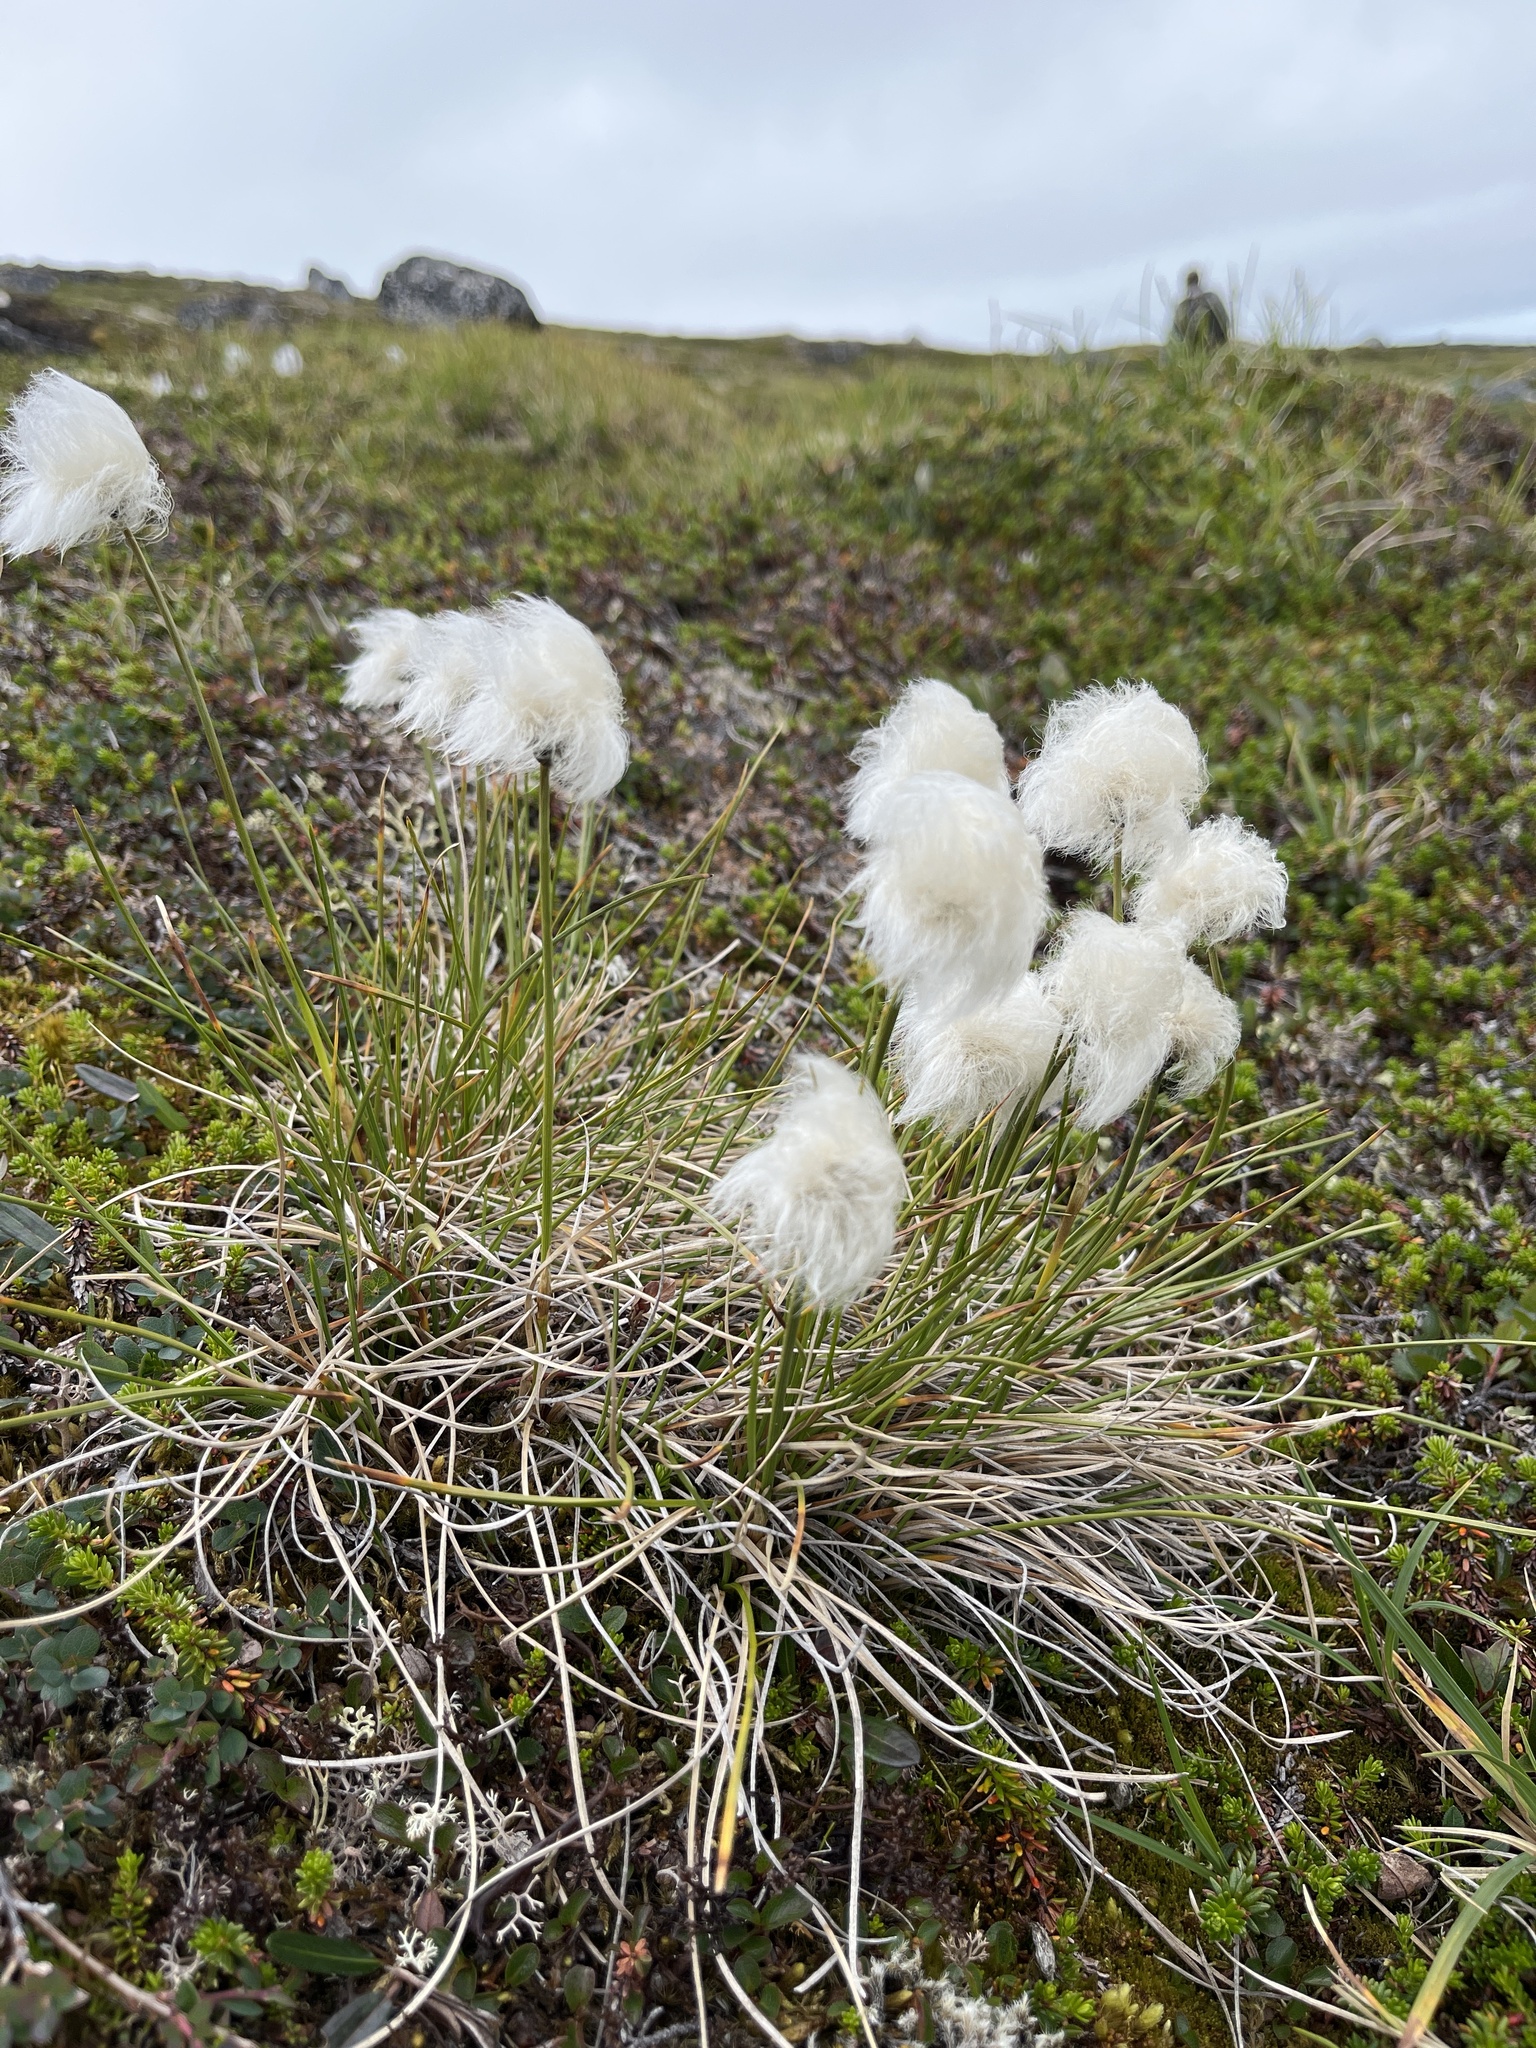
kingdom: Plantae
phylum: Tracheophyta
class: Liliopsida
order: Poales
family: Cyperaceae
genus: Eriophorum
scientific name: Eriophorum vaginatum
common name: Hare's-tail cottongrass
